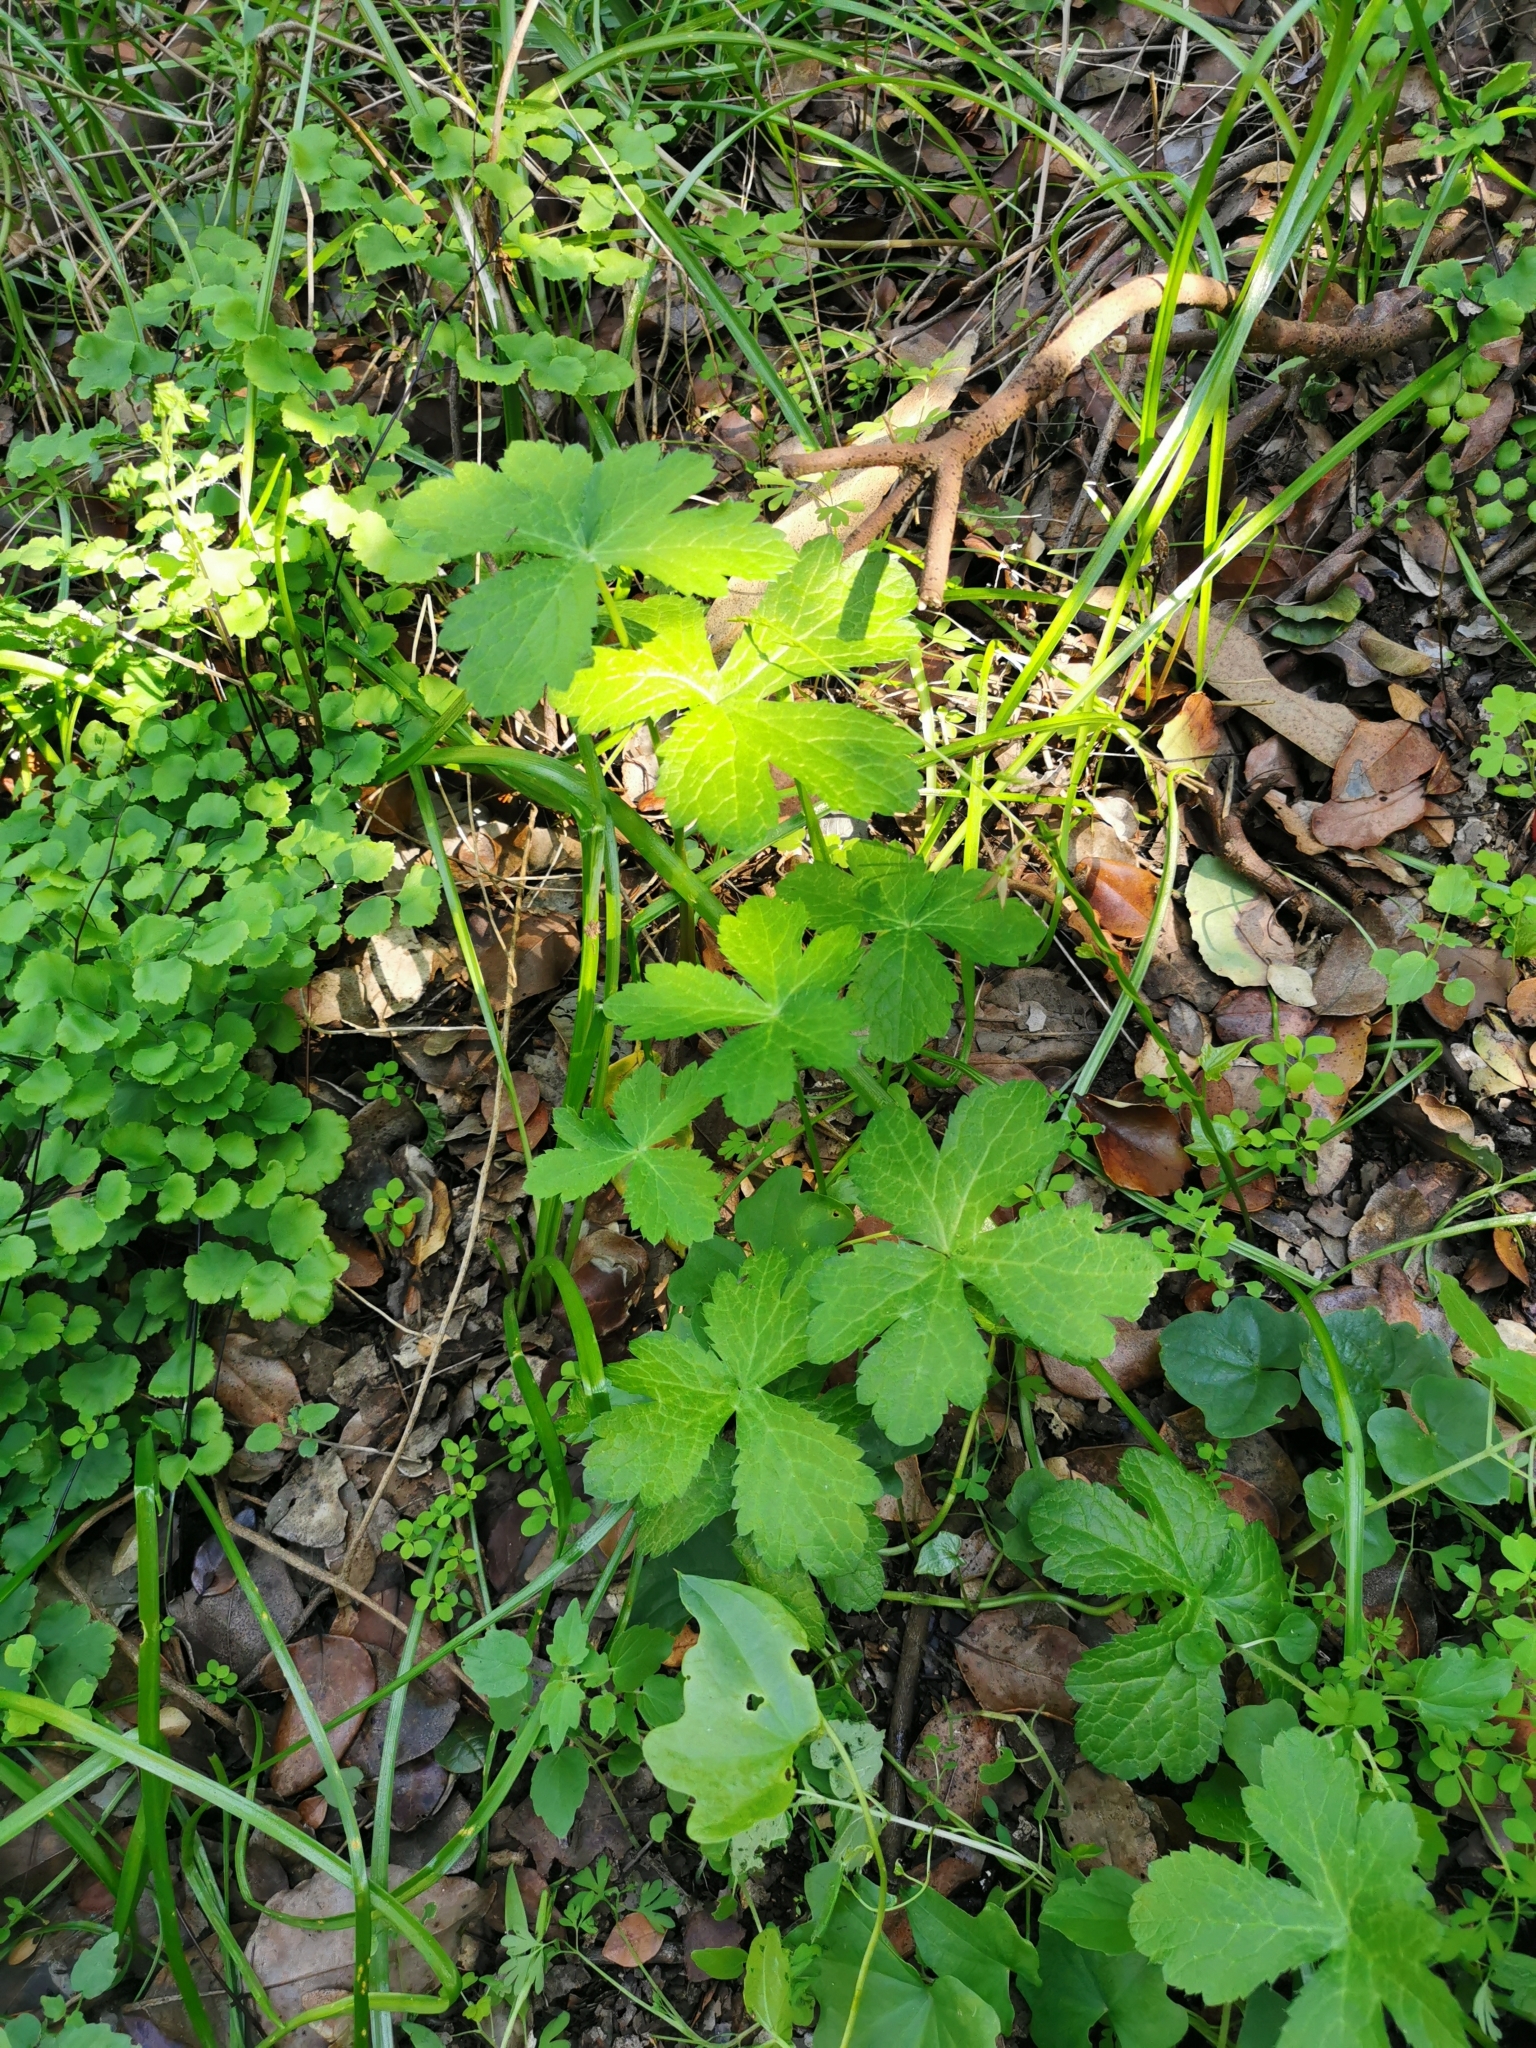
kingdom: Plantae
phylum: Tracheophyta
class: Magnoliopsida
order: Apiales
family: Apiaceae
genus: Sanicula
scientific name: Sanicula crassicaulis
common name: Western snakeroot
